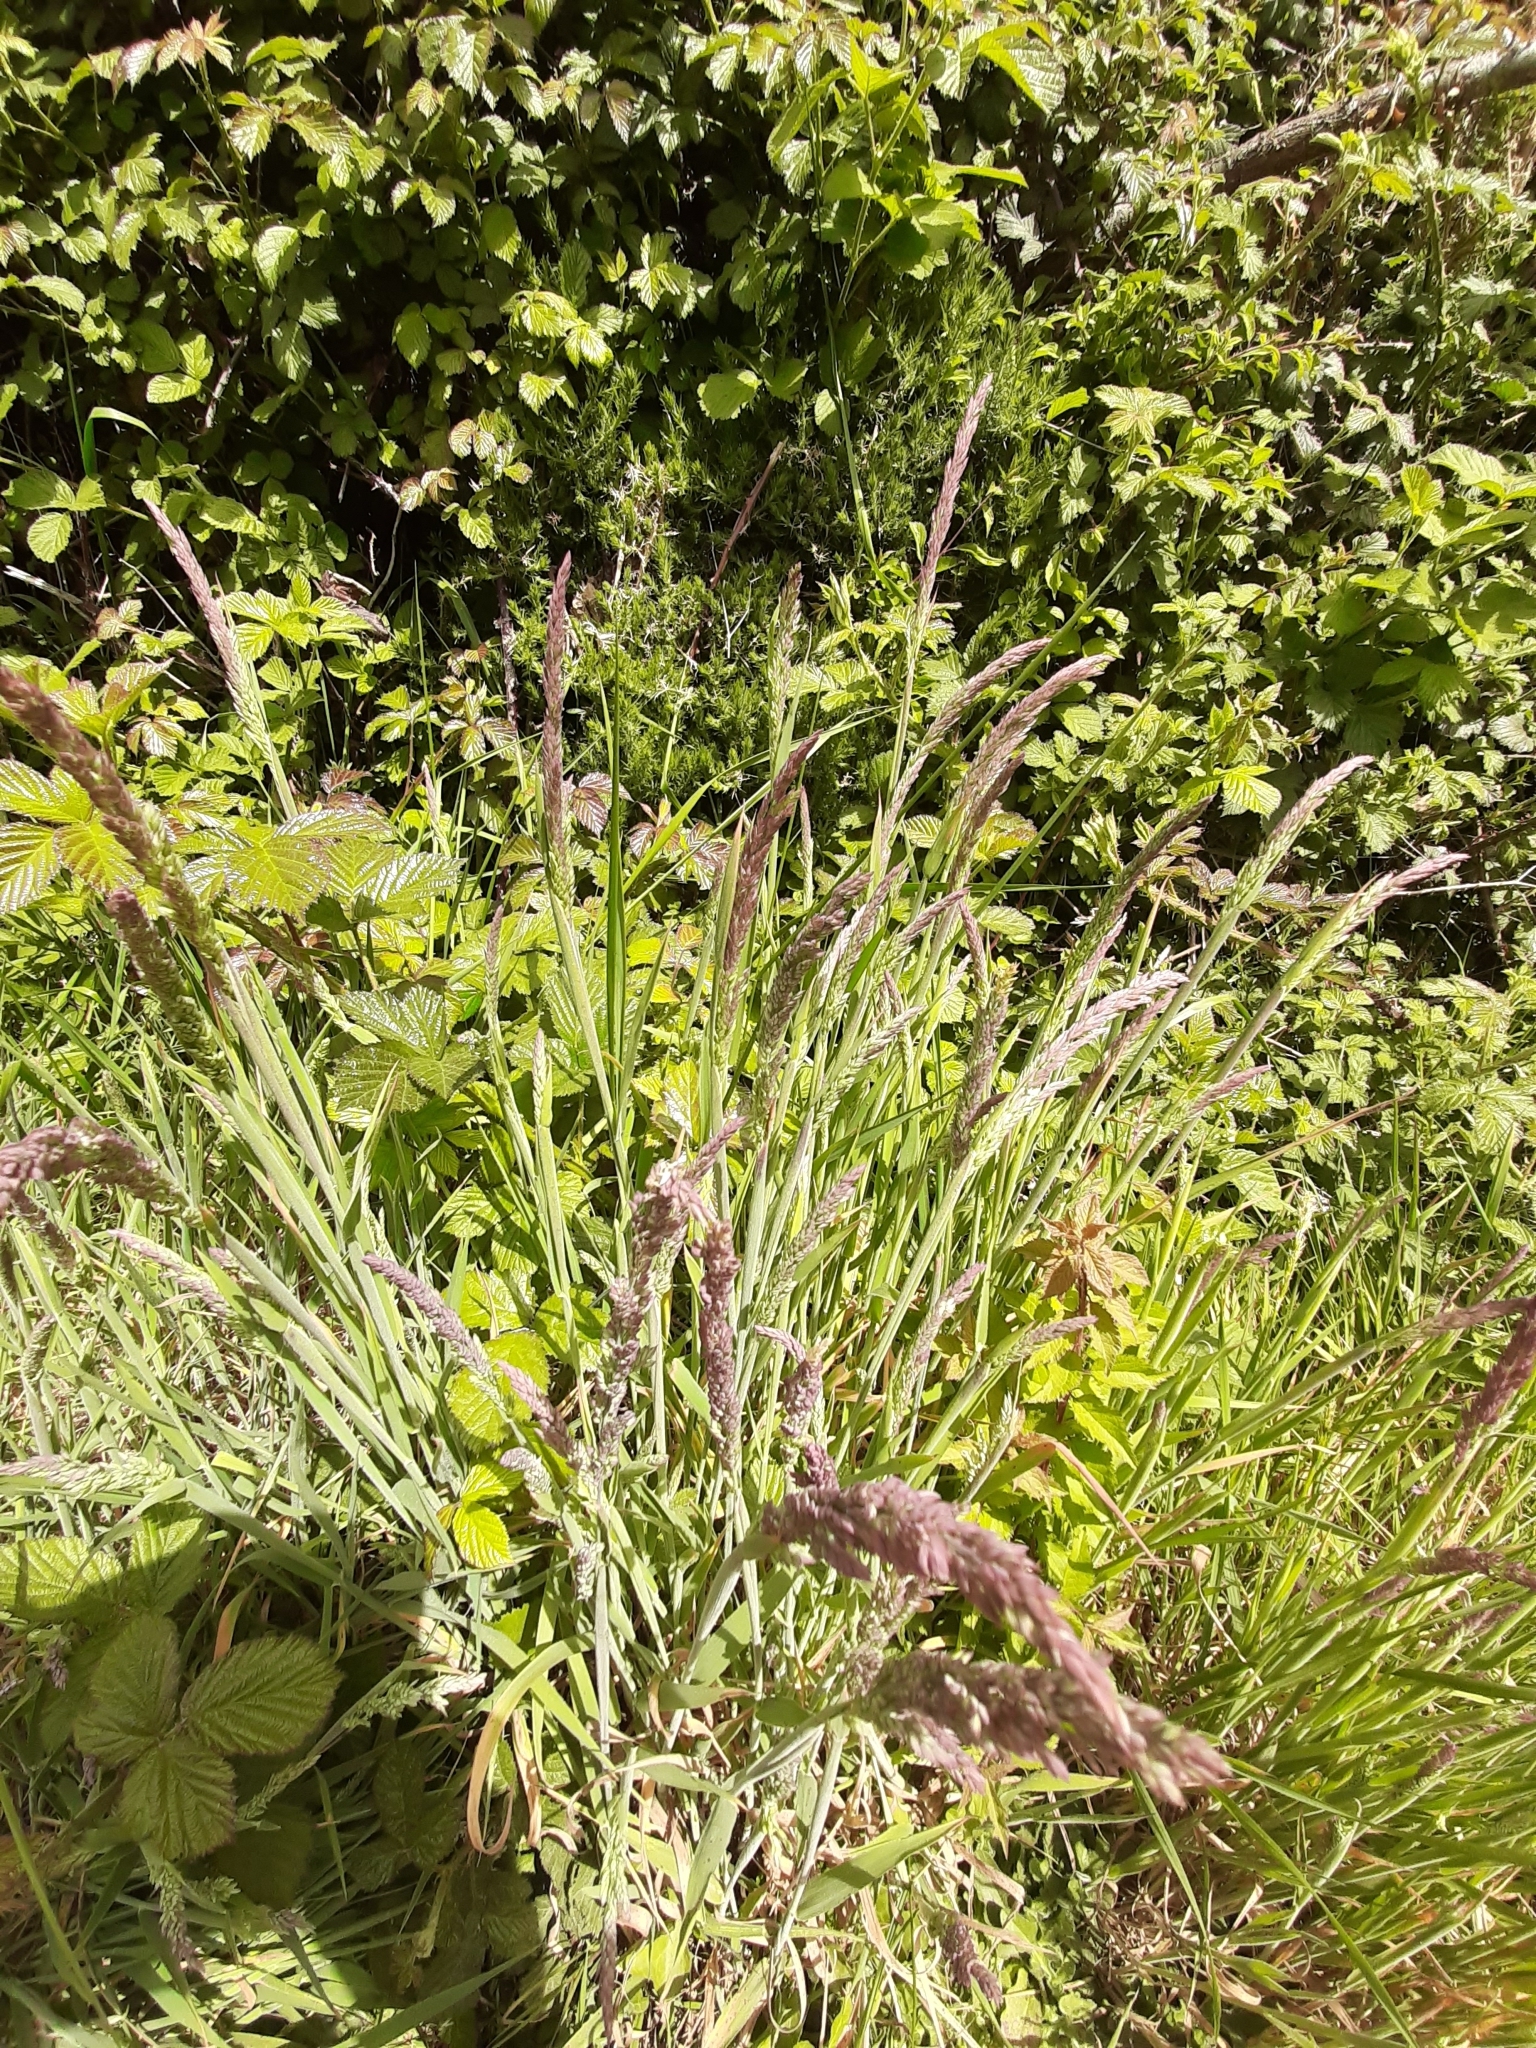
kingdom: Plantae
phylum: Tracheophyta
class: Liliopsida
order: Poales
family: Poaceae
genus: Holcus
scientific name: Holcus lanatus
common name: Yorkshire-fog
